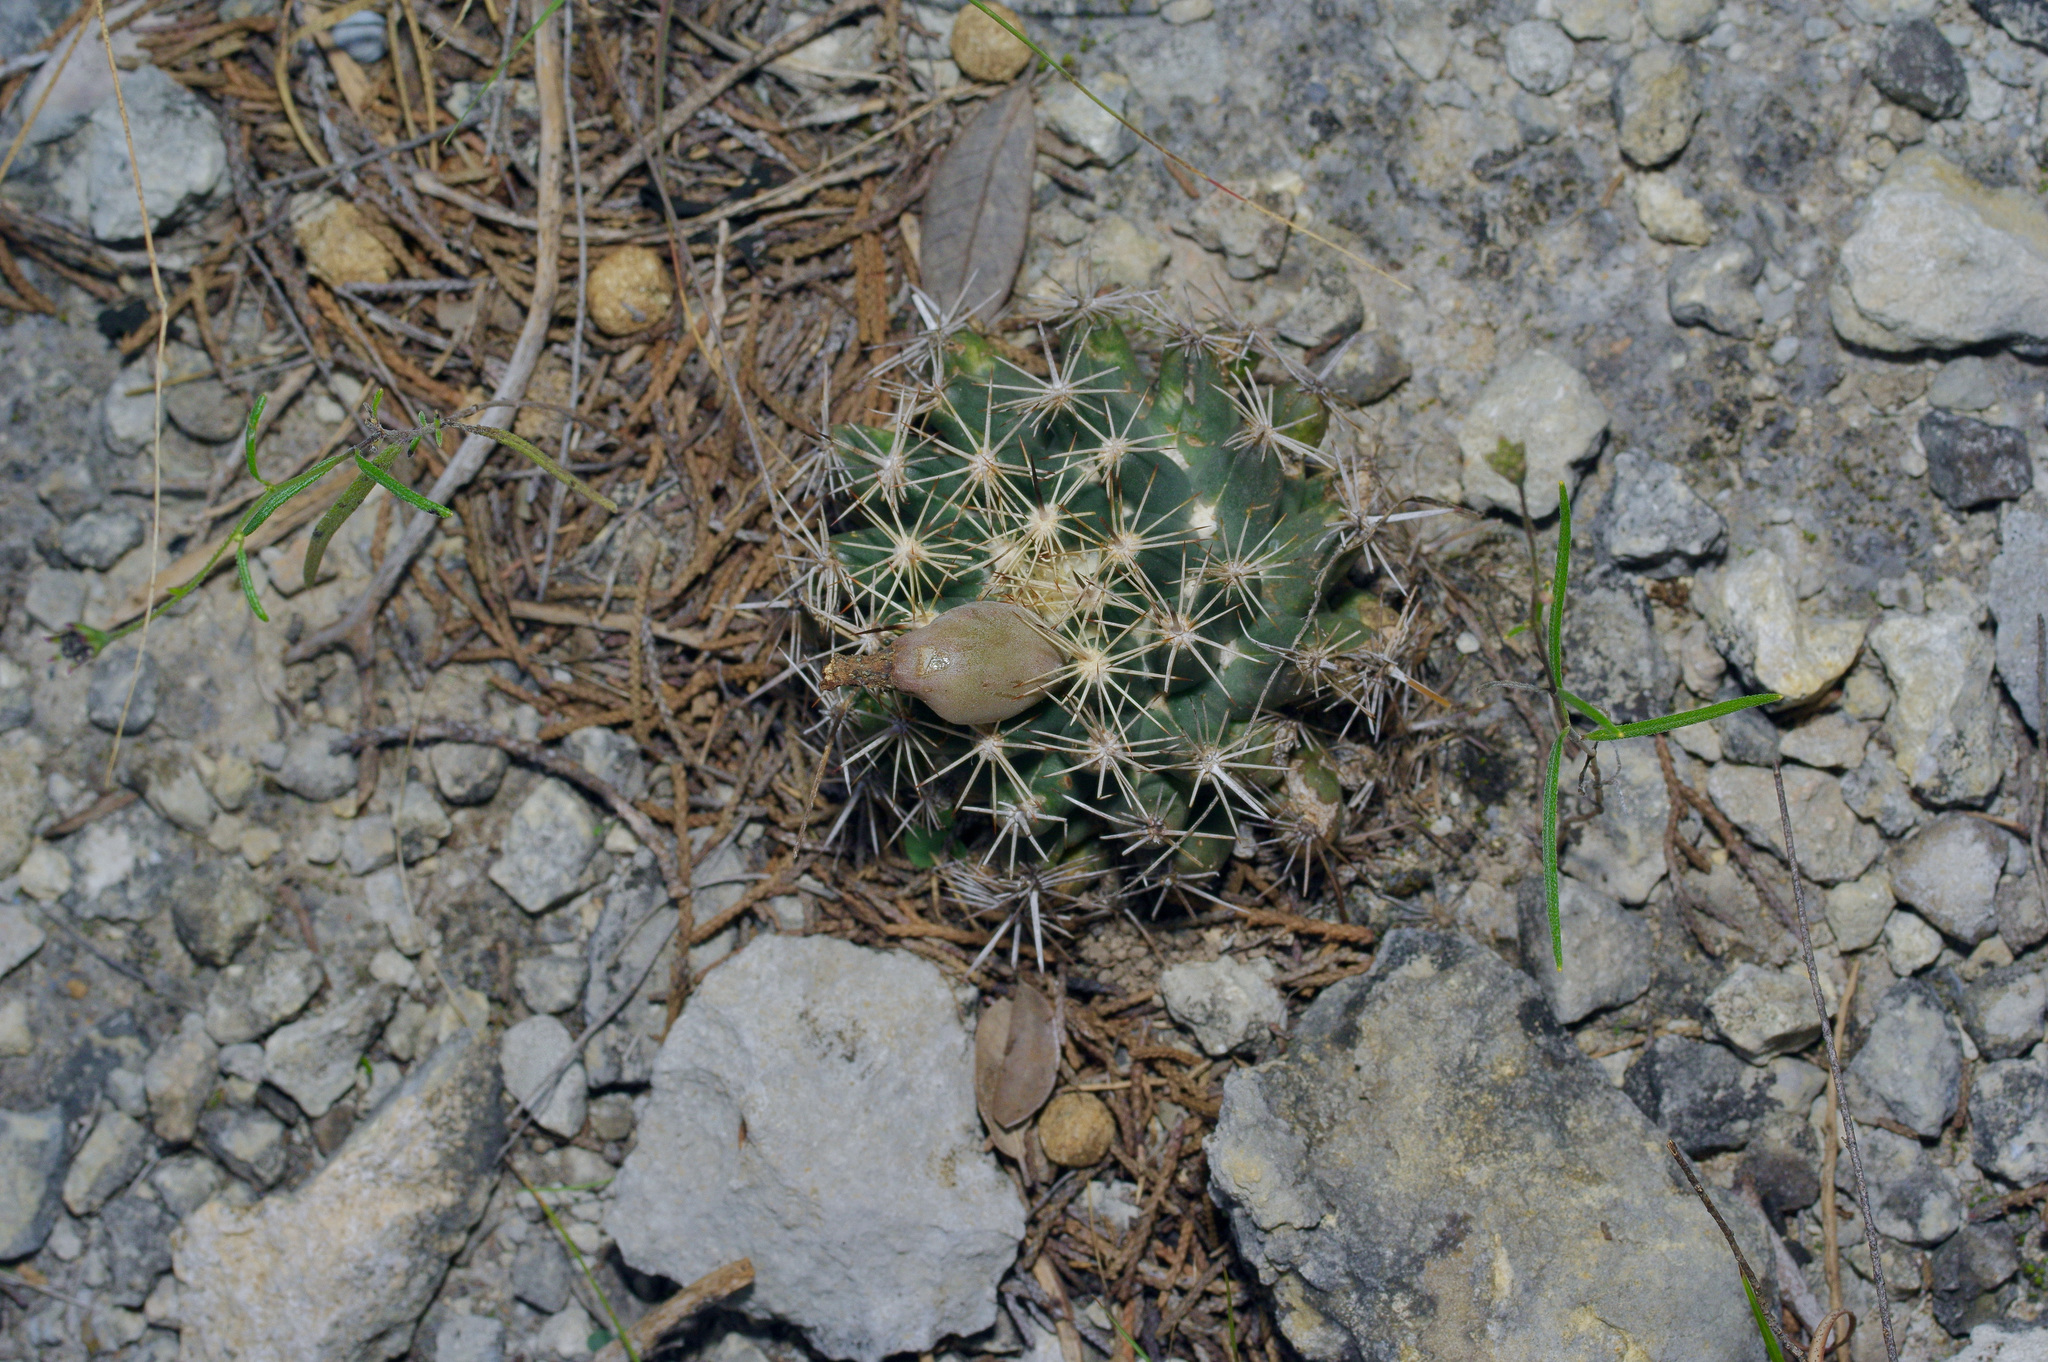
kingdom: Plantae
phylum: Tracheophyta
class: Magnoliopsida
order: Caryophyllales
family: Cactaceae
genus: Coryphantha
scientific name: Coryphantha sulcata
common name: Finger cactus
